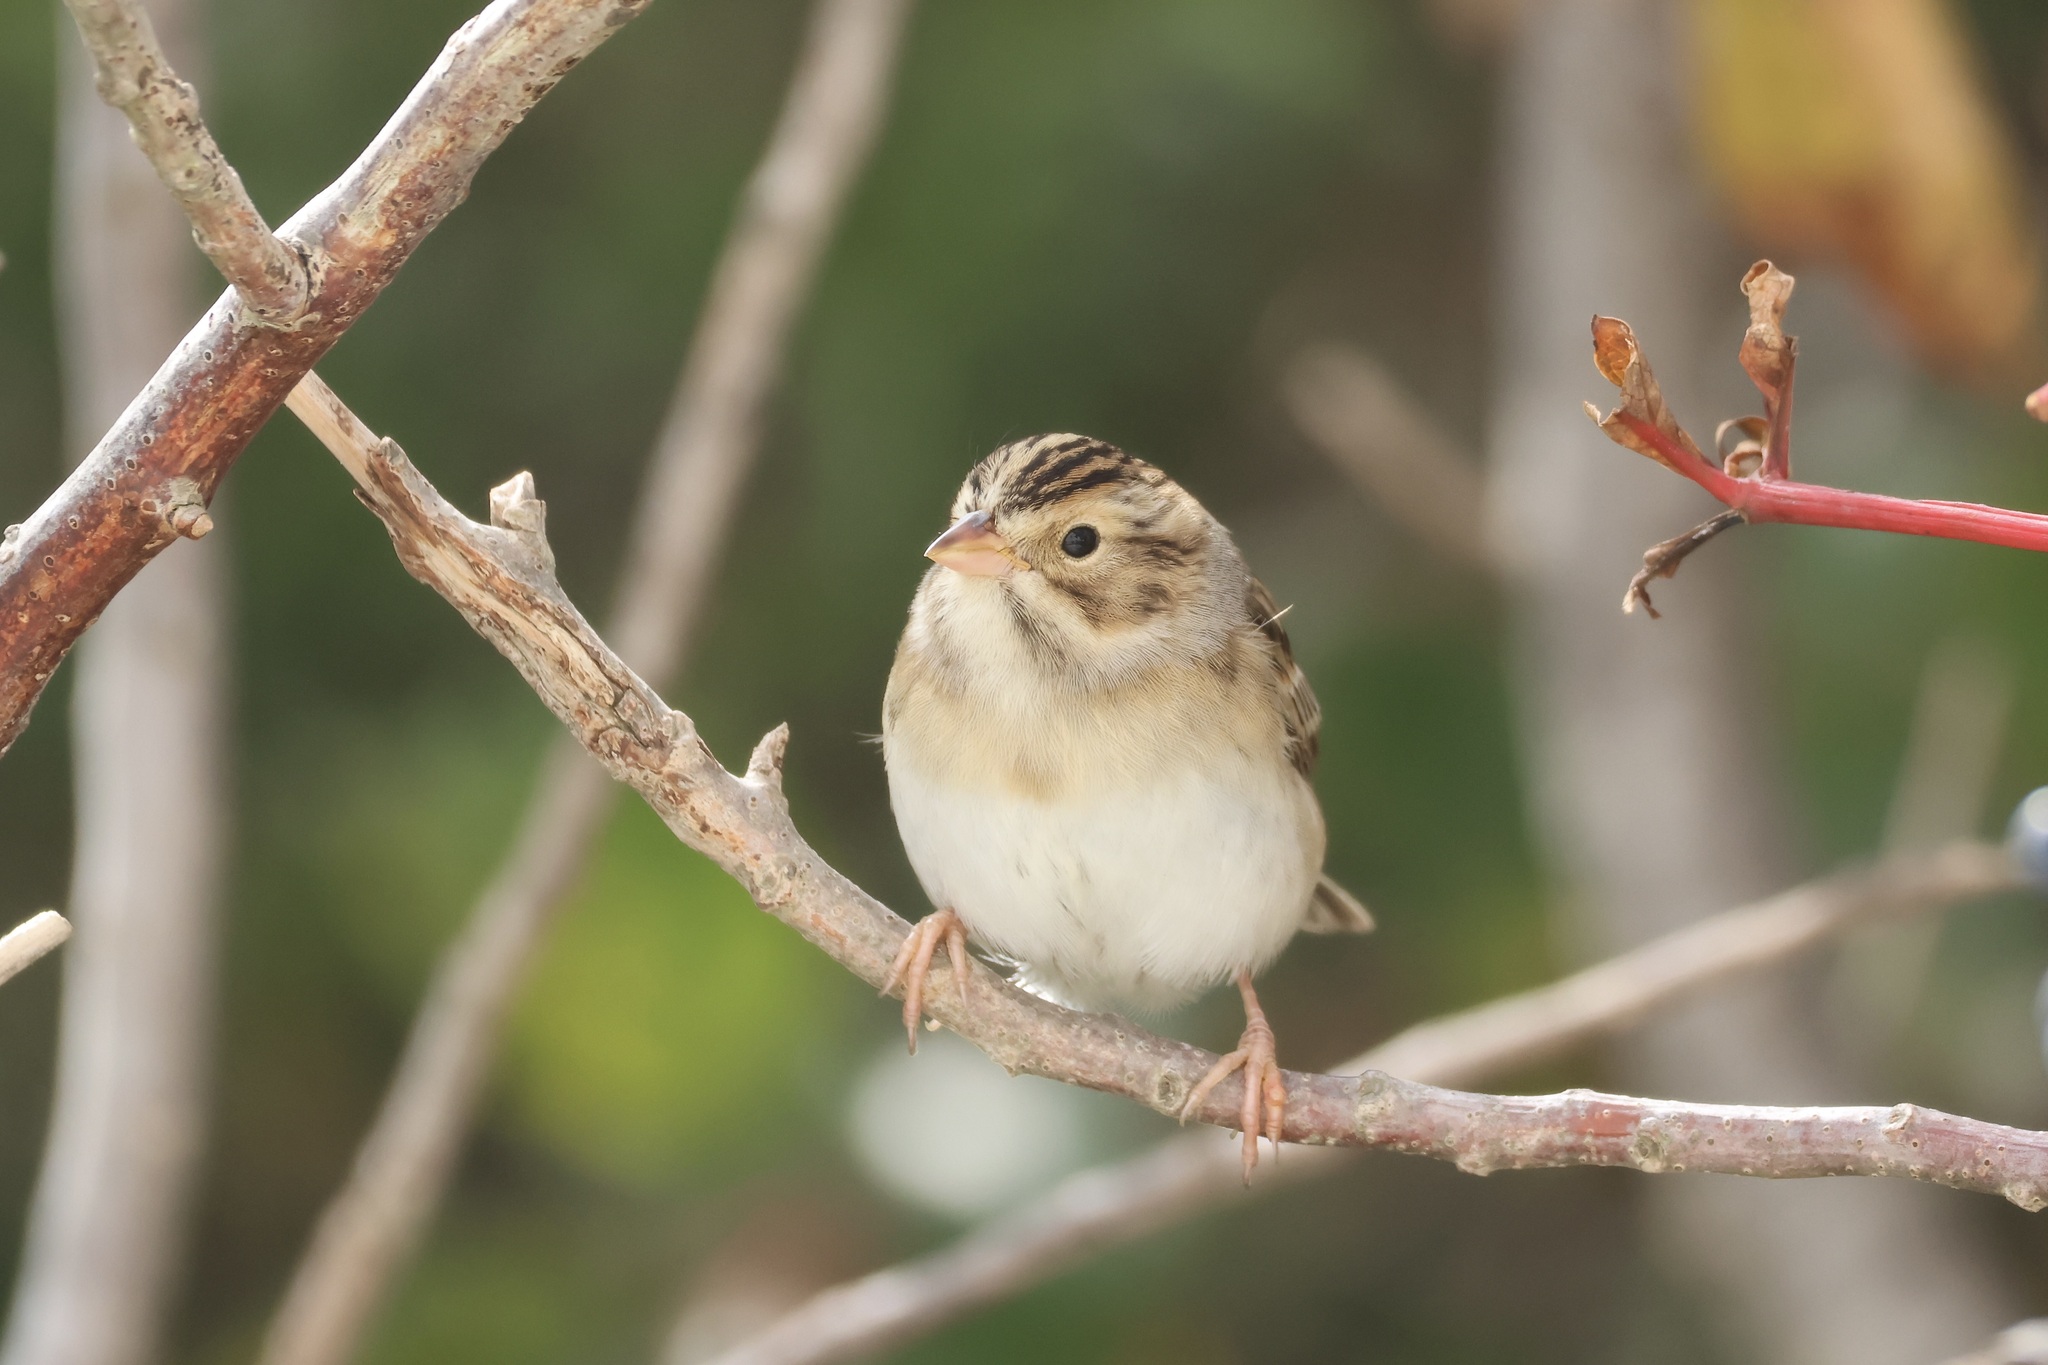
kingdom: Animalia
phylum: Chordata
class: Aves
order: Passeriformes
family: Passerellidae
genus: Spizella
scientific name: Spizella pallida
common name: Clay-colored sparrow
